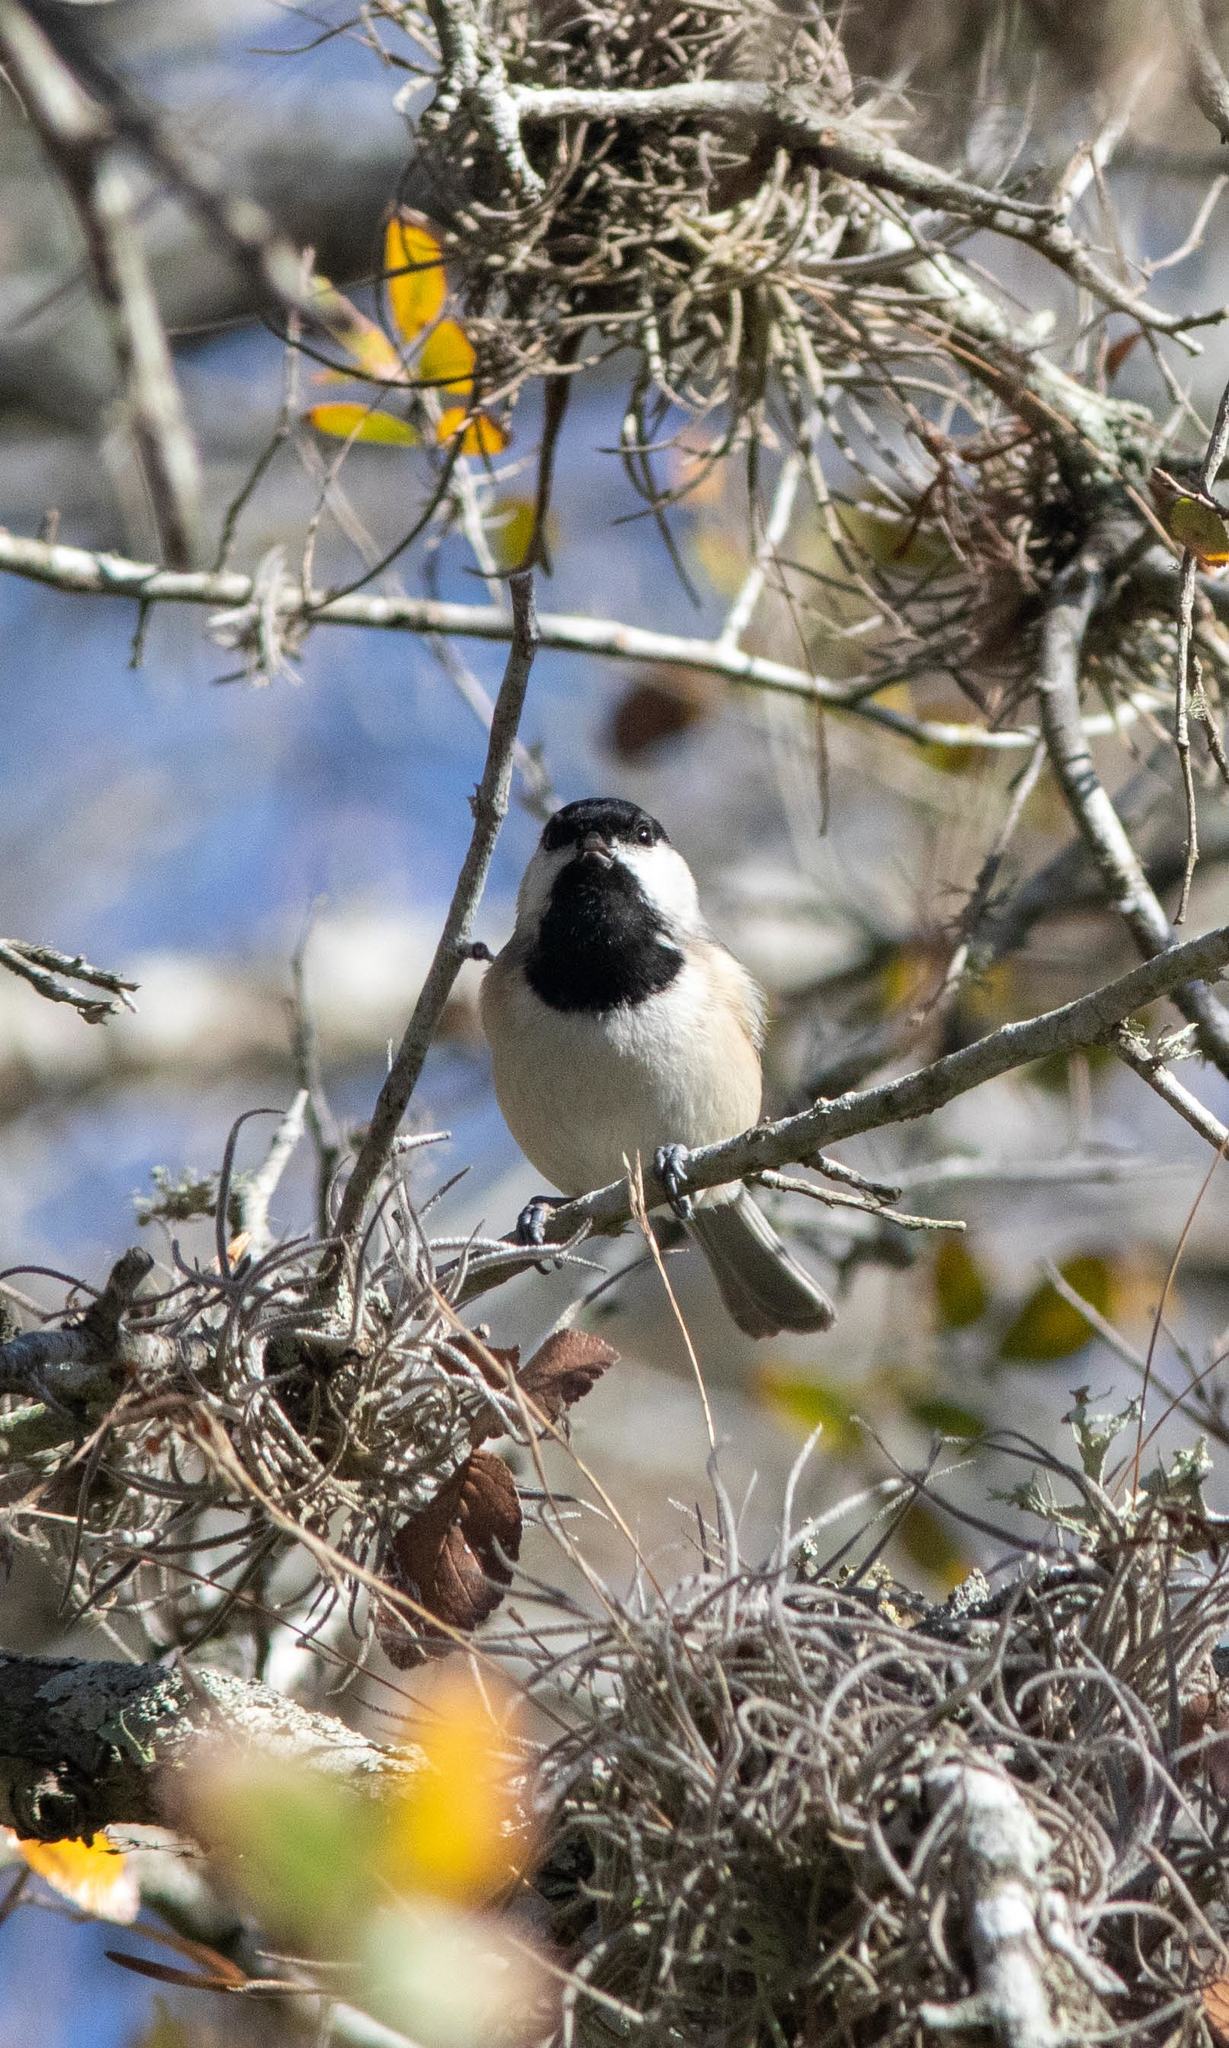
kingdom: Animalia
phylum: Chordata
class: Aves
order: Passeriformes
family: Paridae
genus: Poecile
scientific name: Poecile carolinensis
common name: Carolina chickadee
